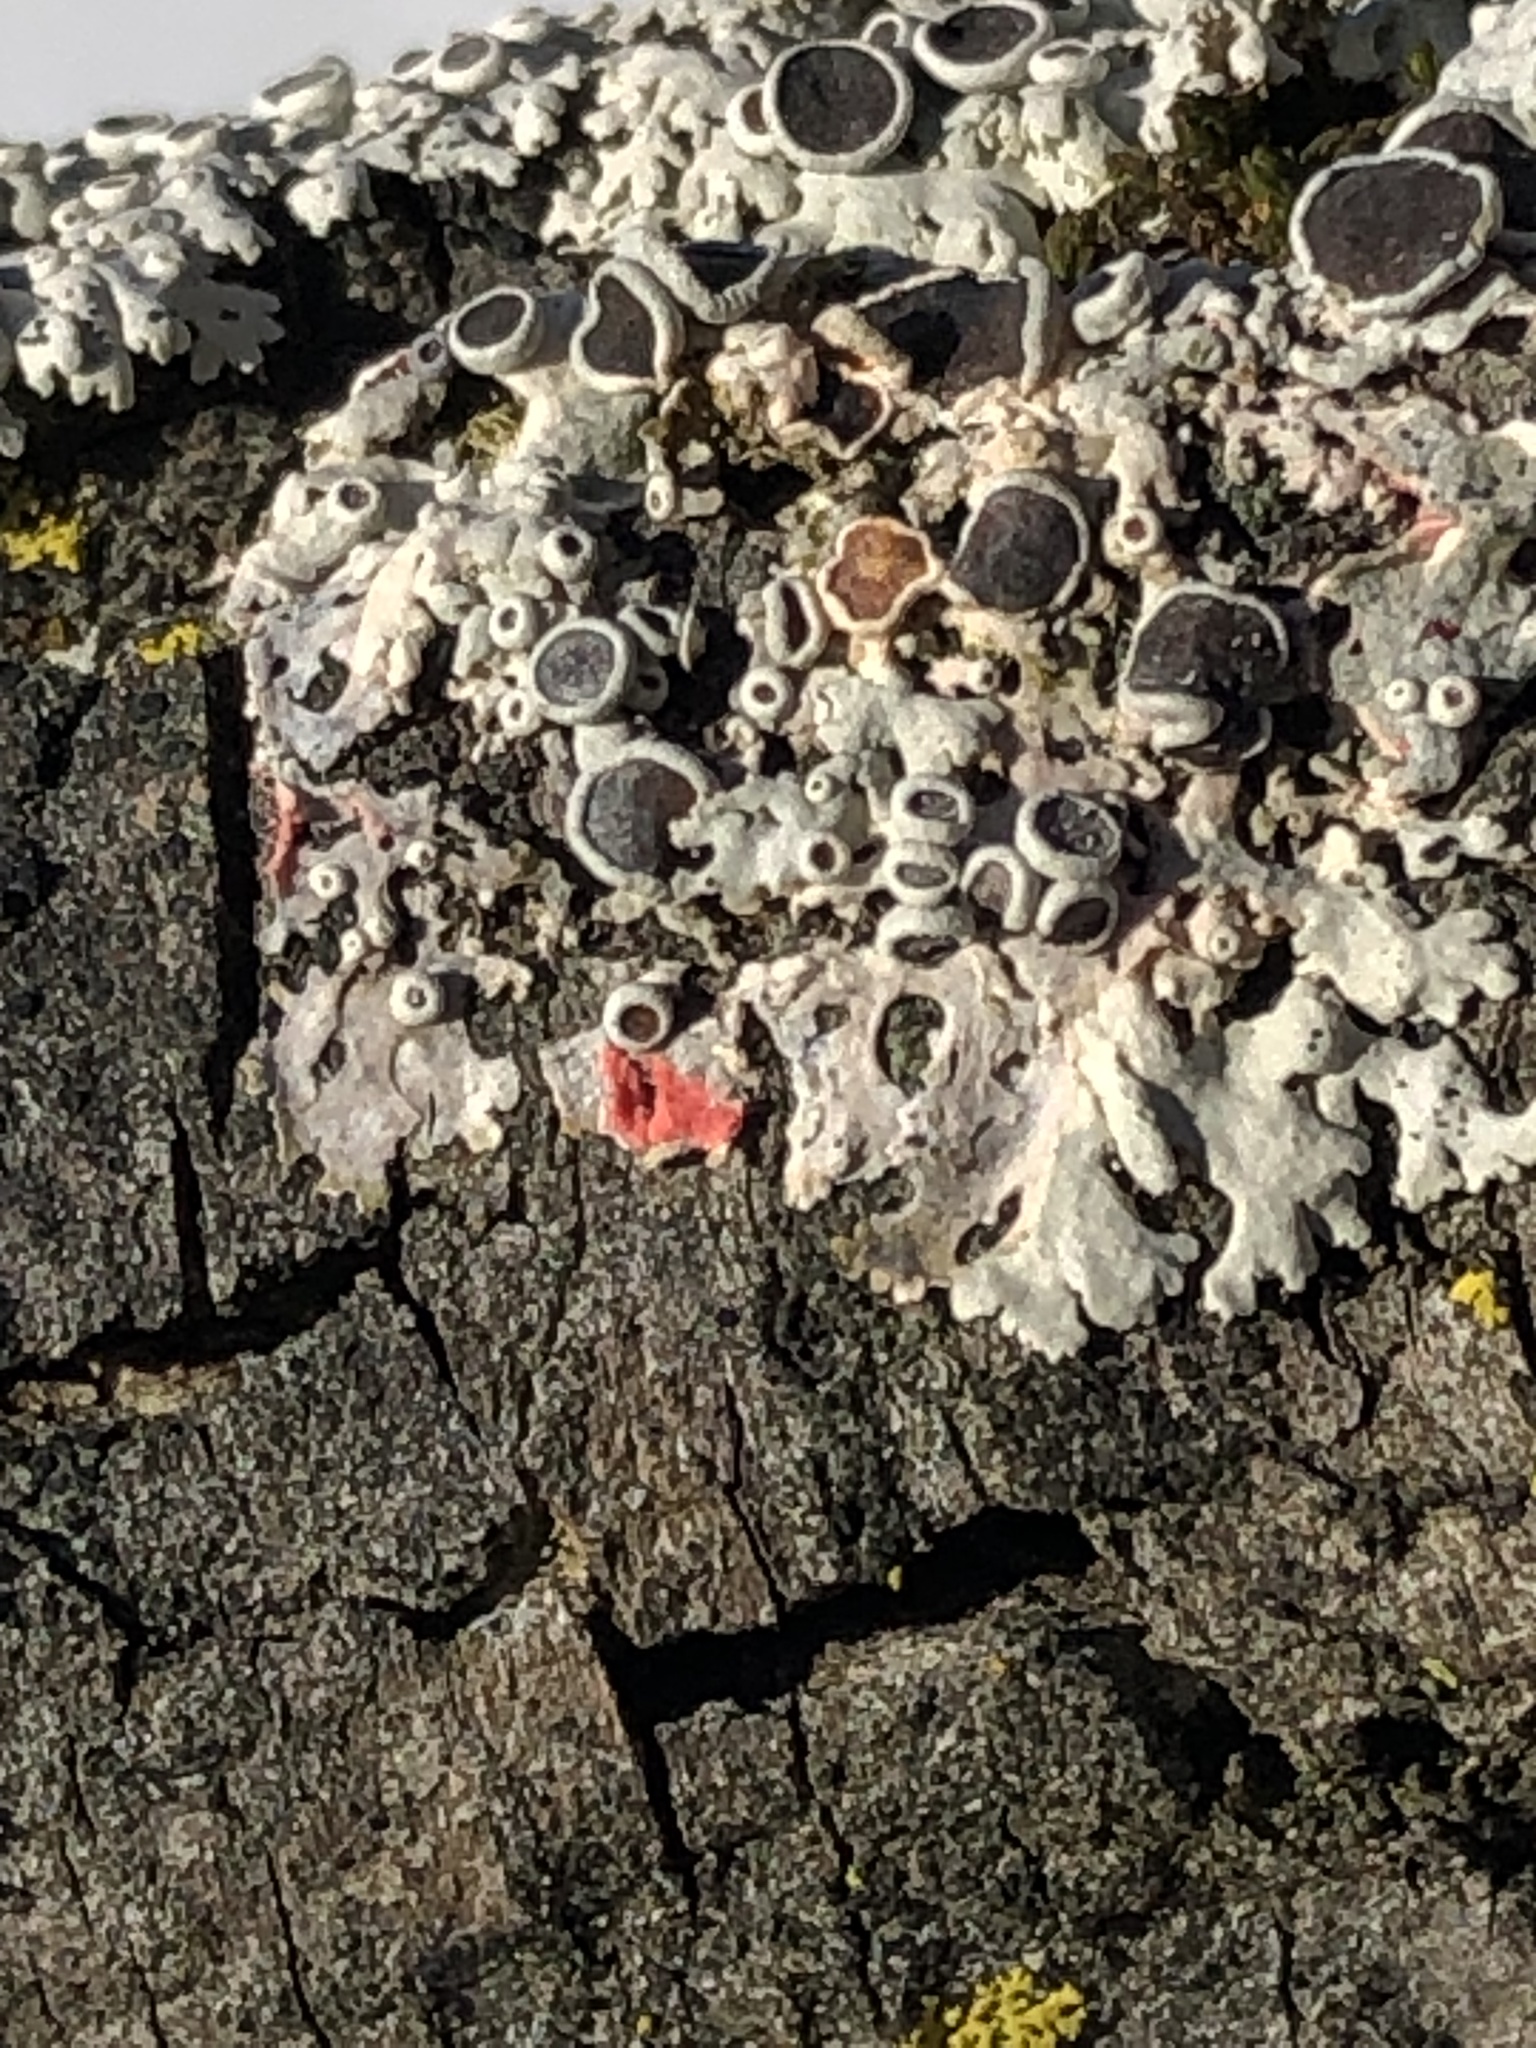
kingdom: Fungi
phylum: Ascomycota
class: Sordariomycetes
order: Hypocreales
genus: Illosporiopsis
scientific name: Illosporiopsis christiansenii
